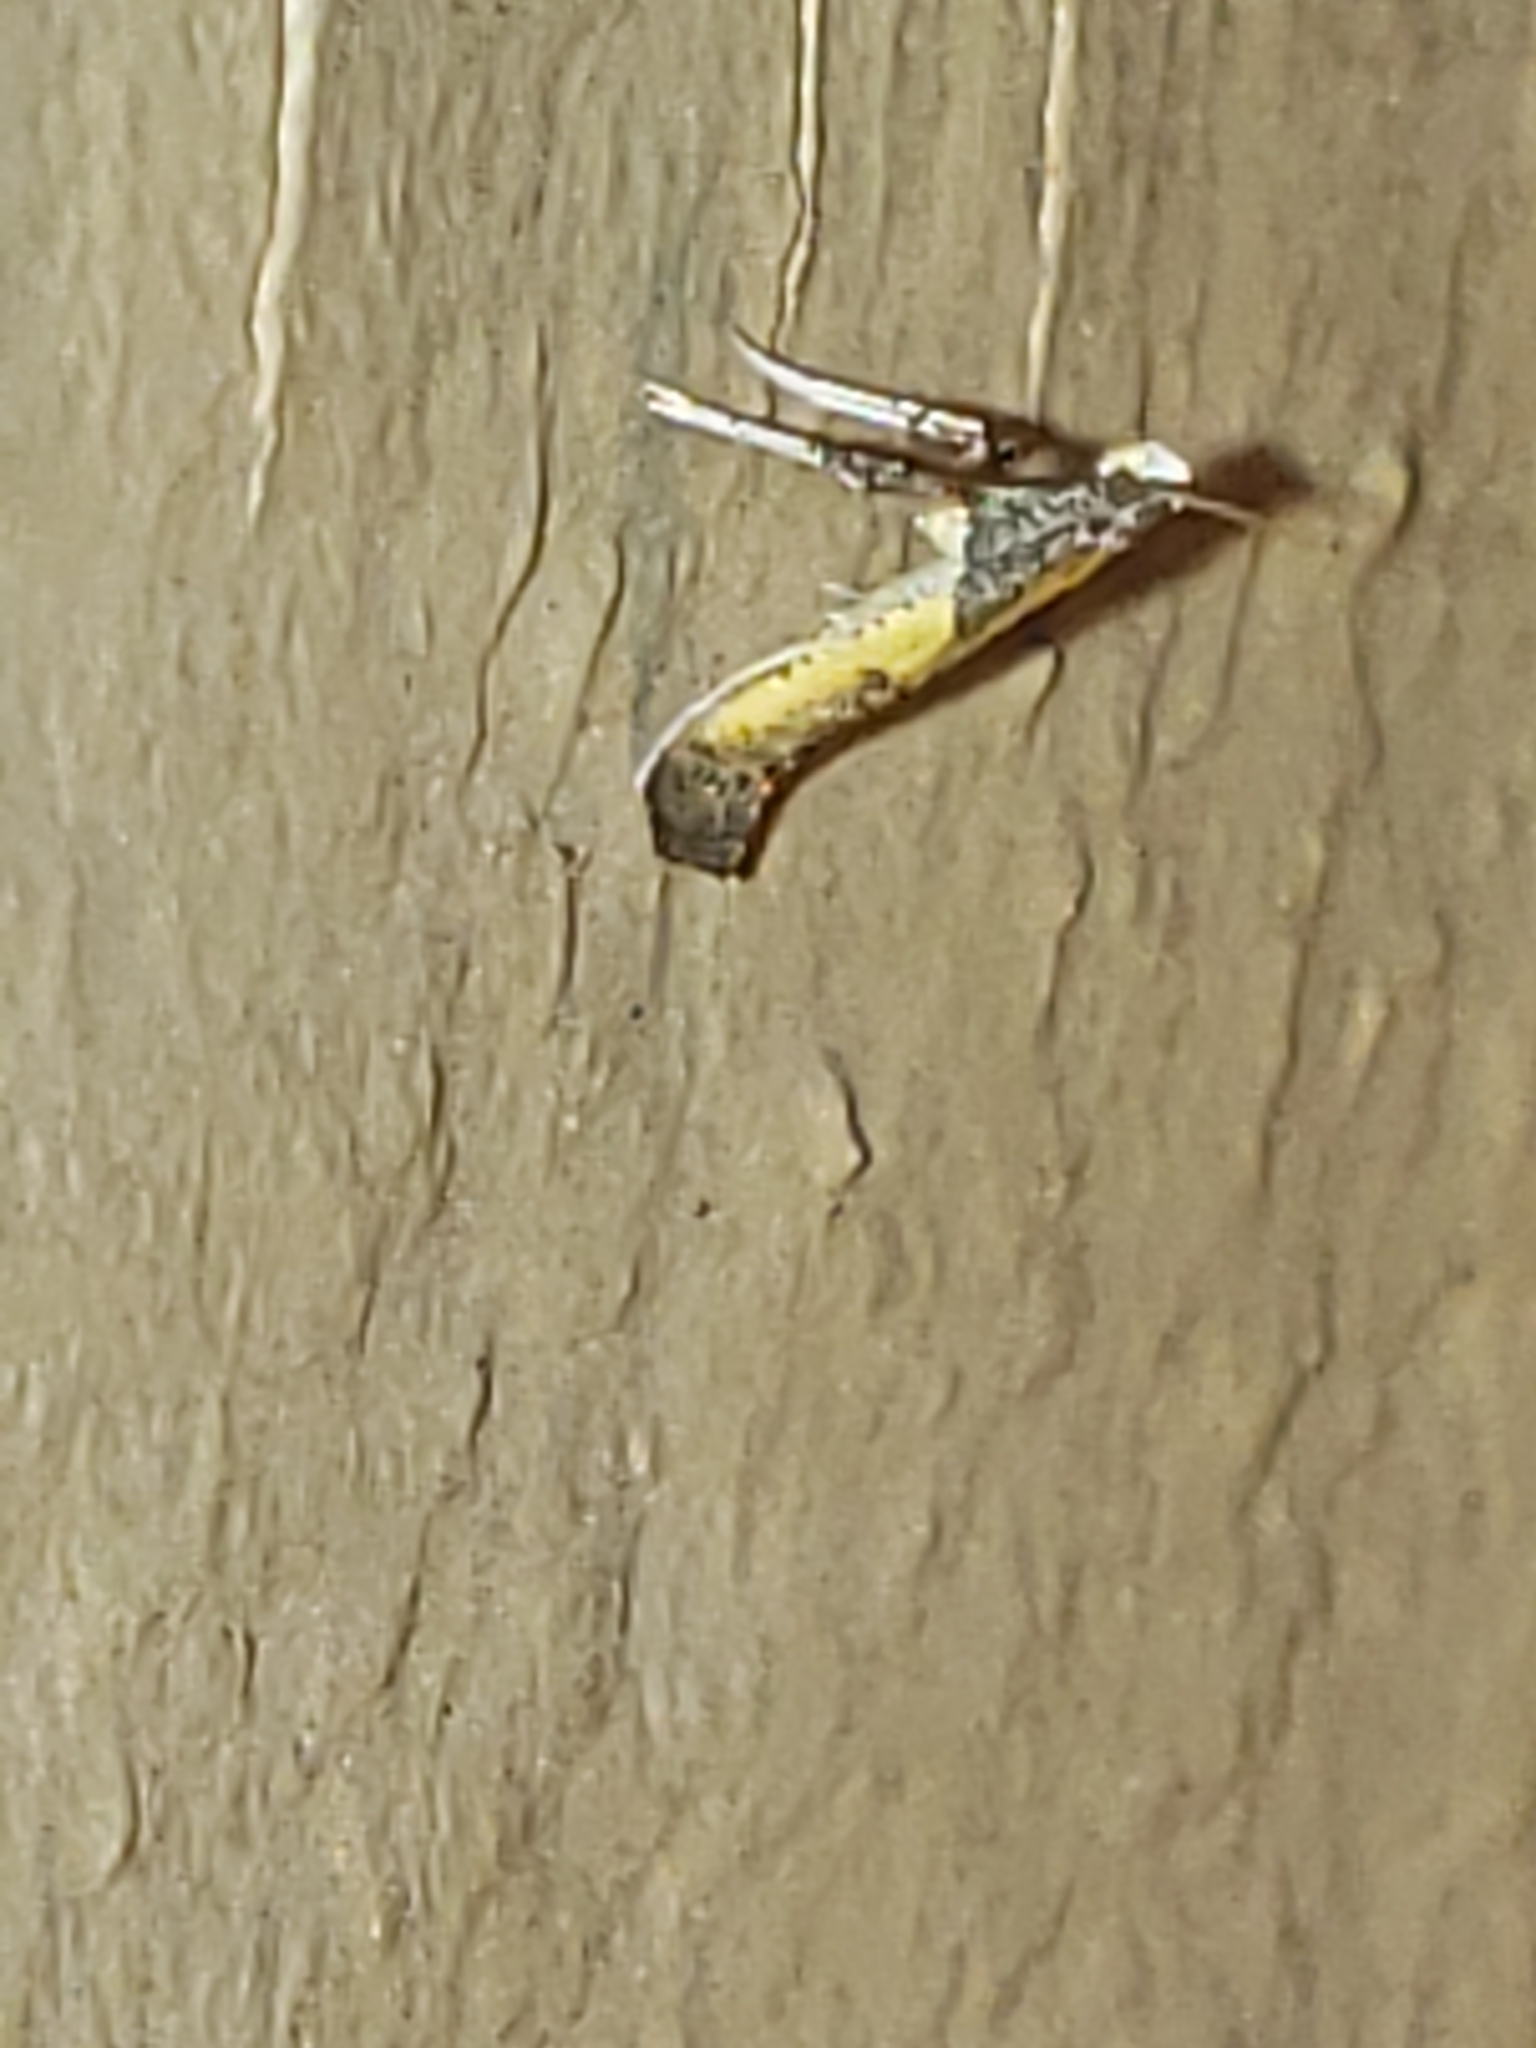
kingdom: Animalia
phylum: Arthropoda
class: Insecta
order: Lepidoptera
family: Gracillariidae
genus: Caloptilia
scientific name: Caloptilia azaleella
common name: Azalea leafminer
